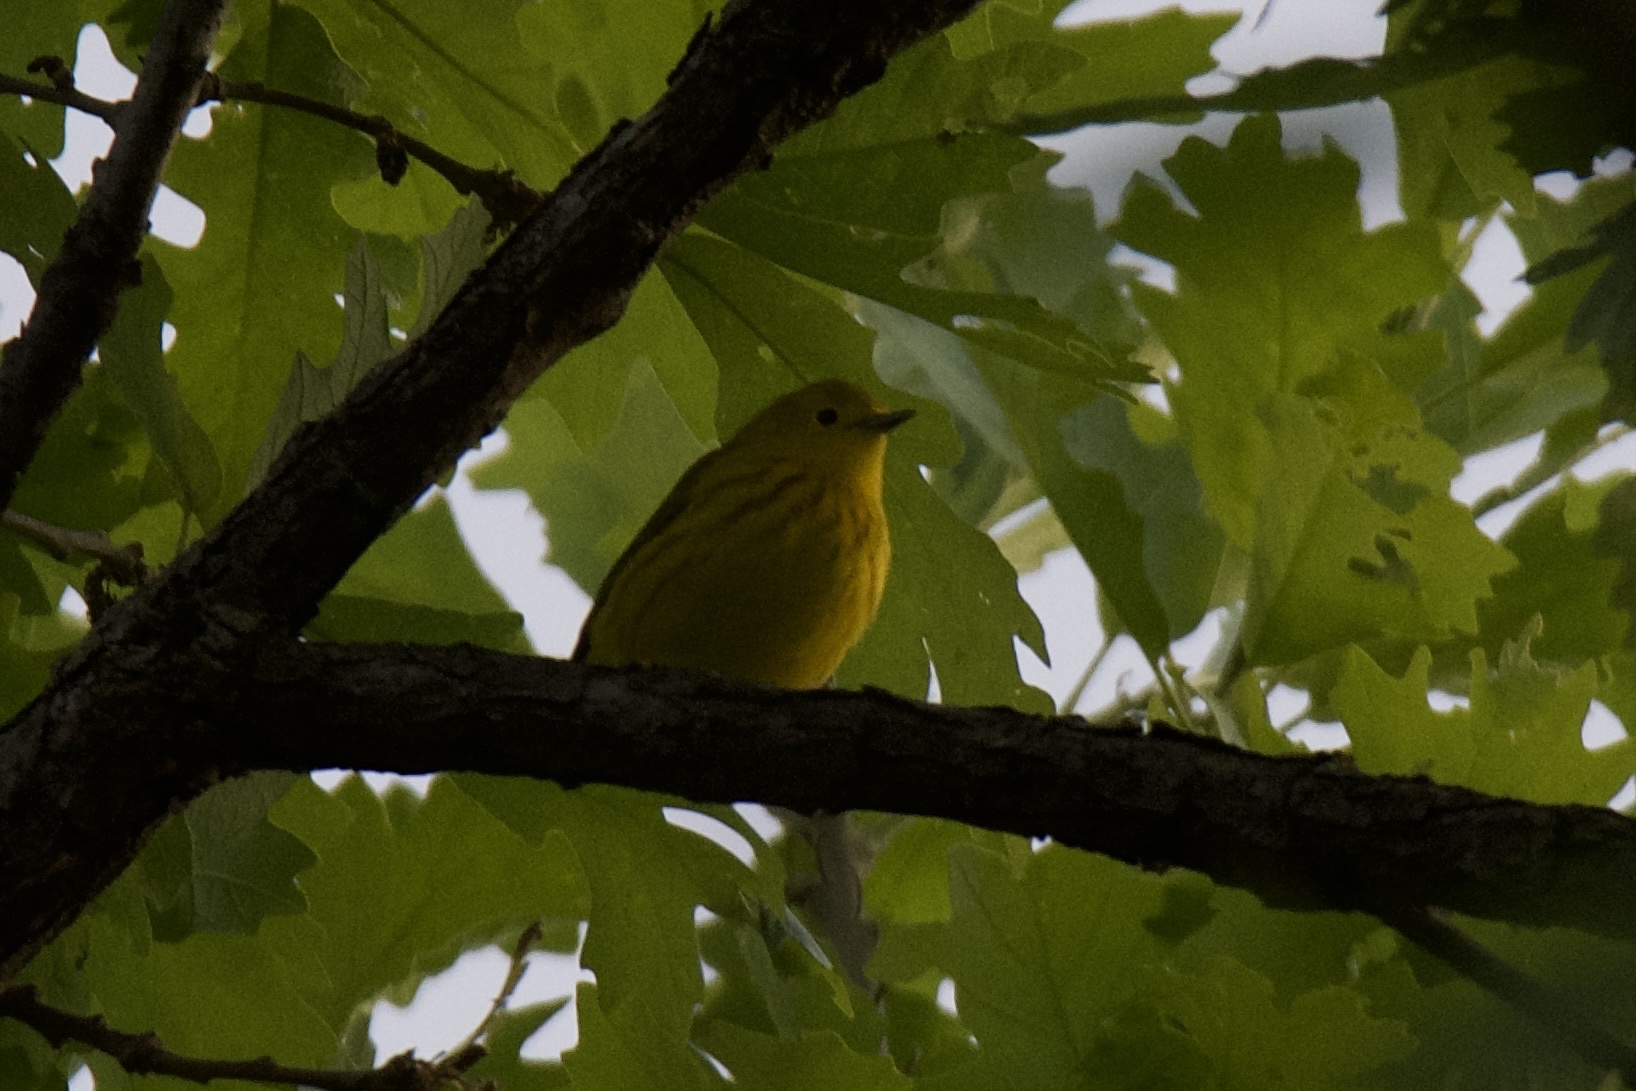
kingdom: Animalia
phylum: Chordata
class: Aves
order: Passeriformes
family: Parulidae
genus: Setophaga
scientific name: Setophaga petechia
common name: Yellow warbler
